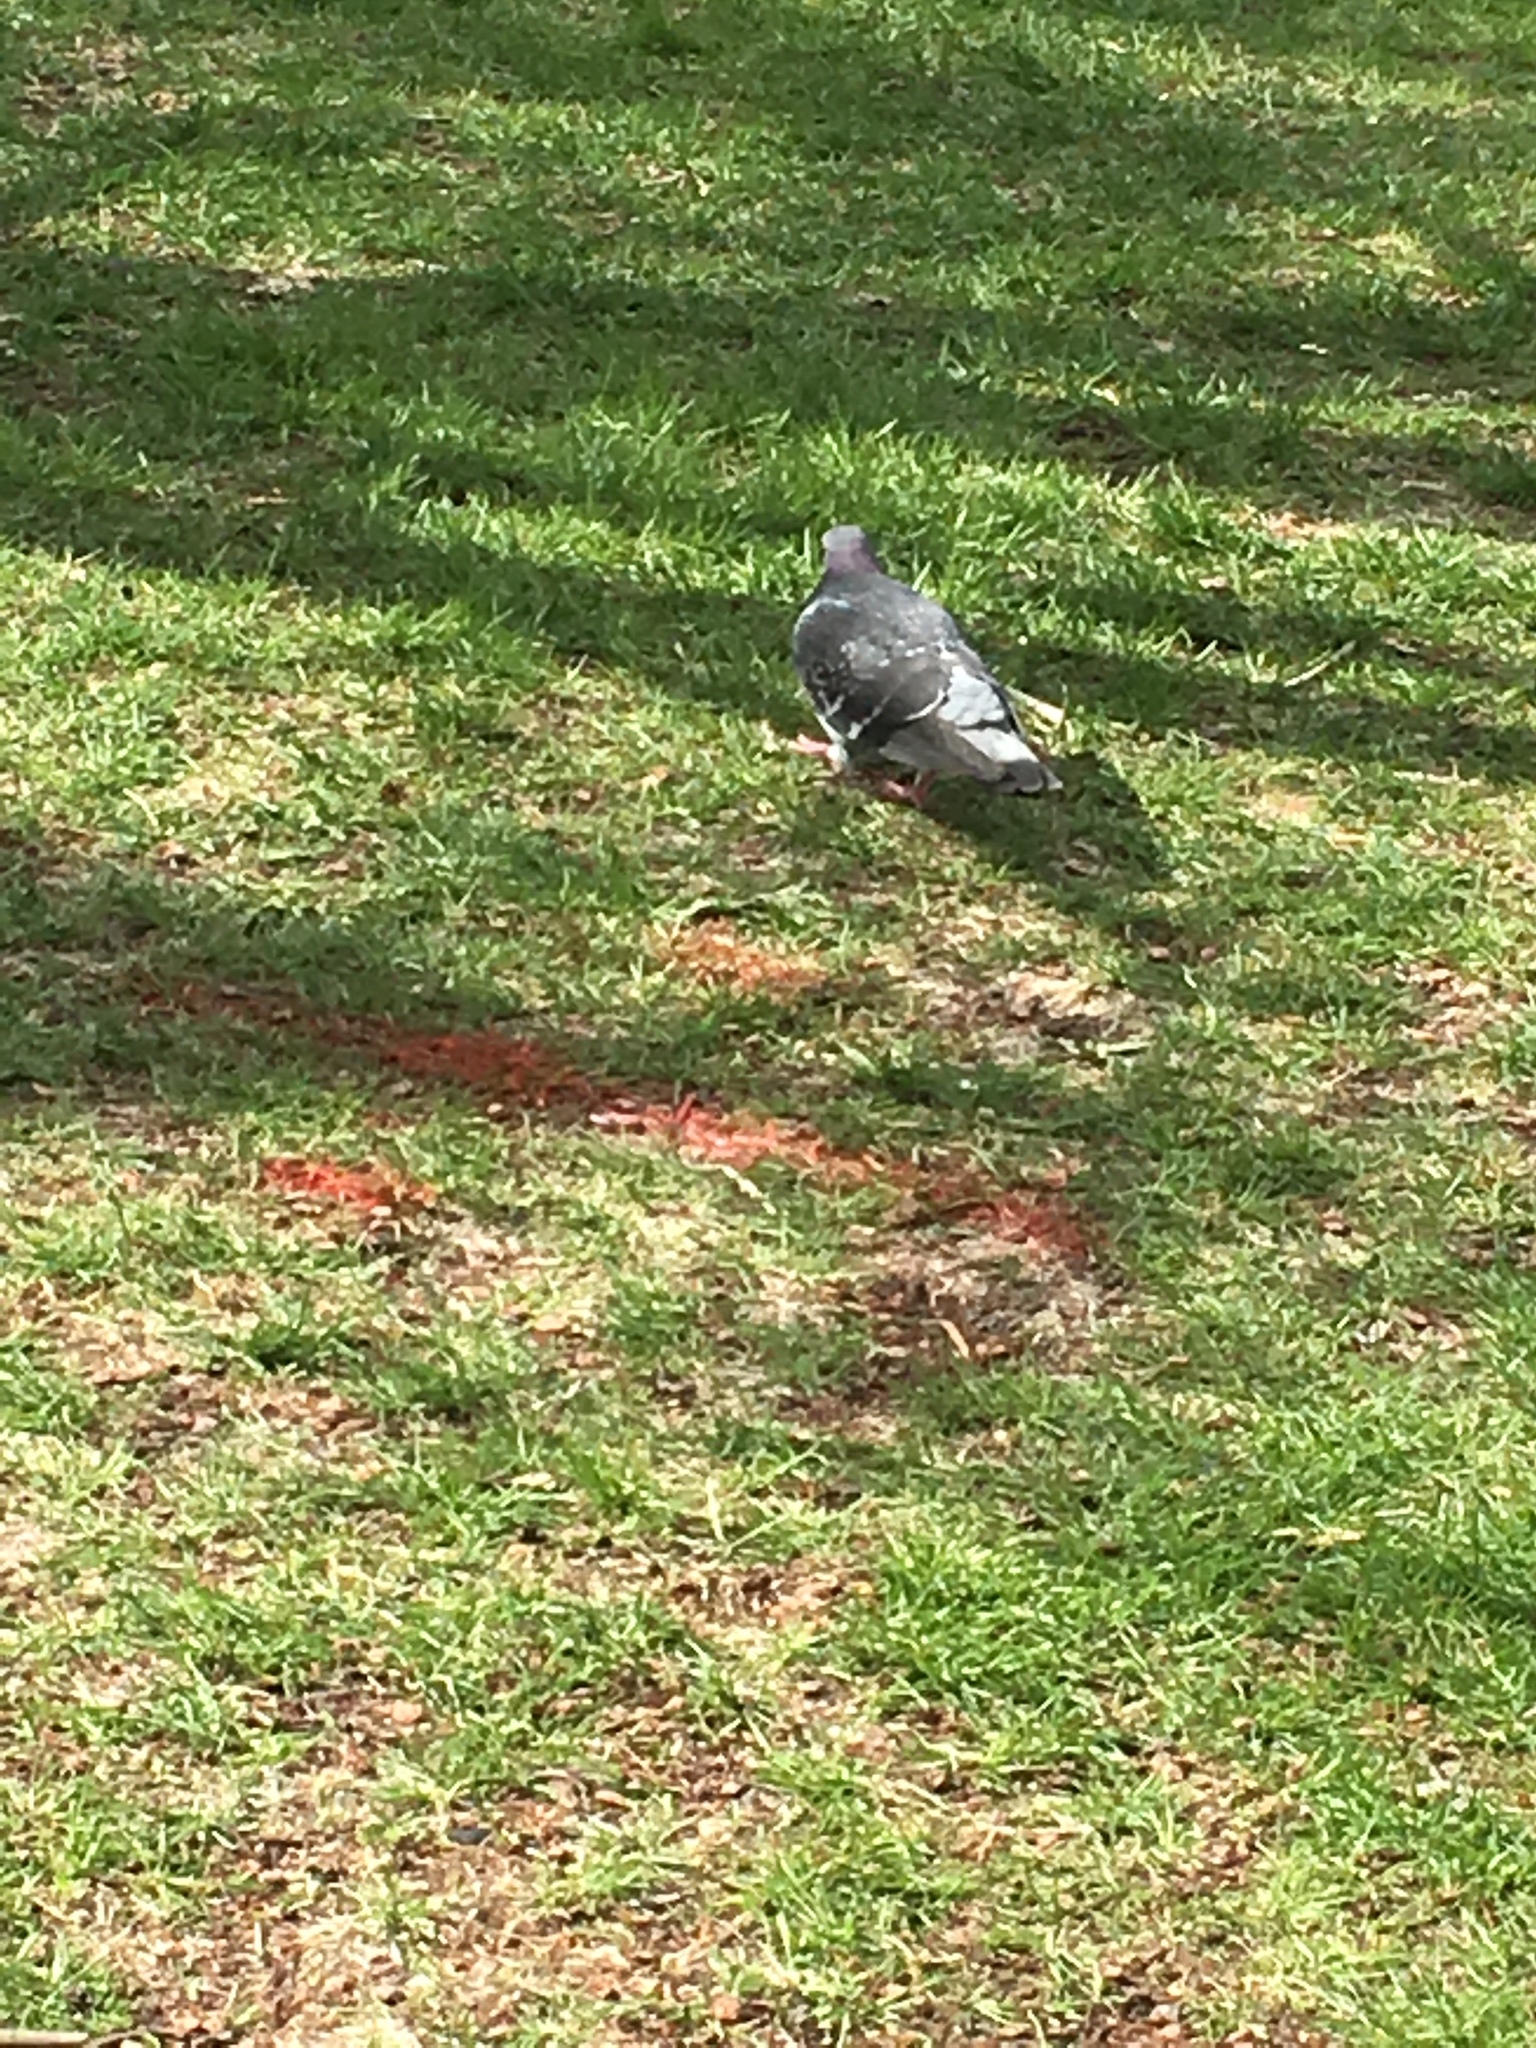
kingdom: Animalia
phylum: Chordata
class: Aves
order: Columbiformes
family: Columbidae
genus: Columba
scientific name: Columba livia
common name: Rock pigeon
